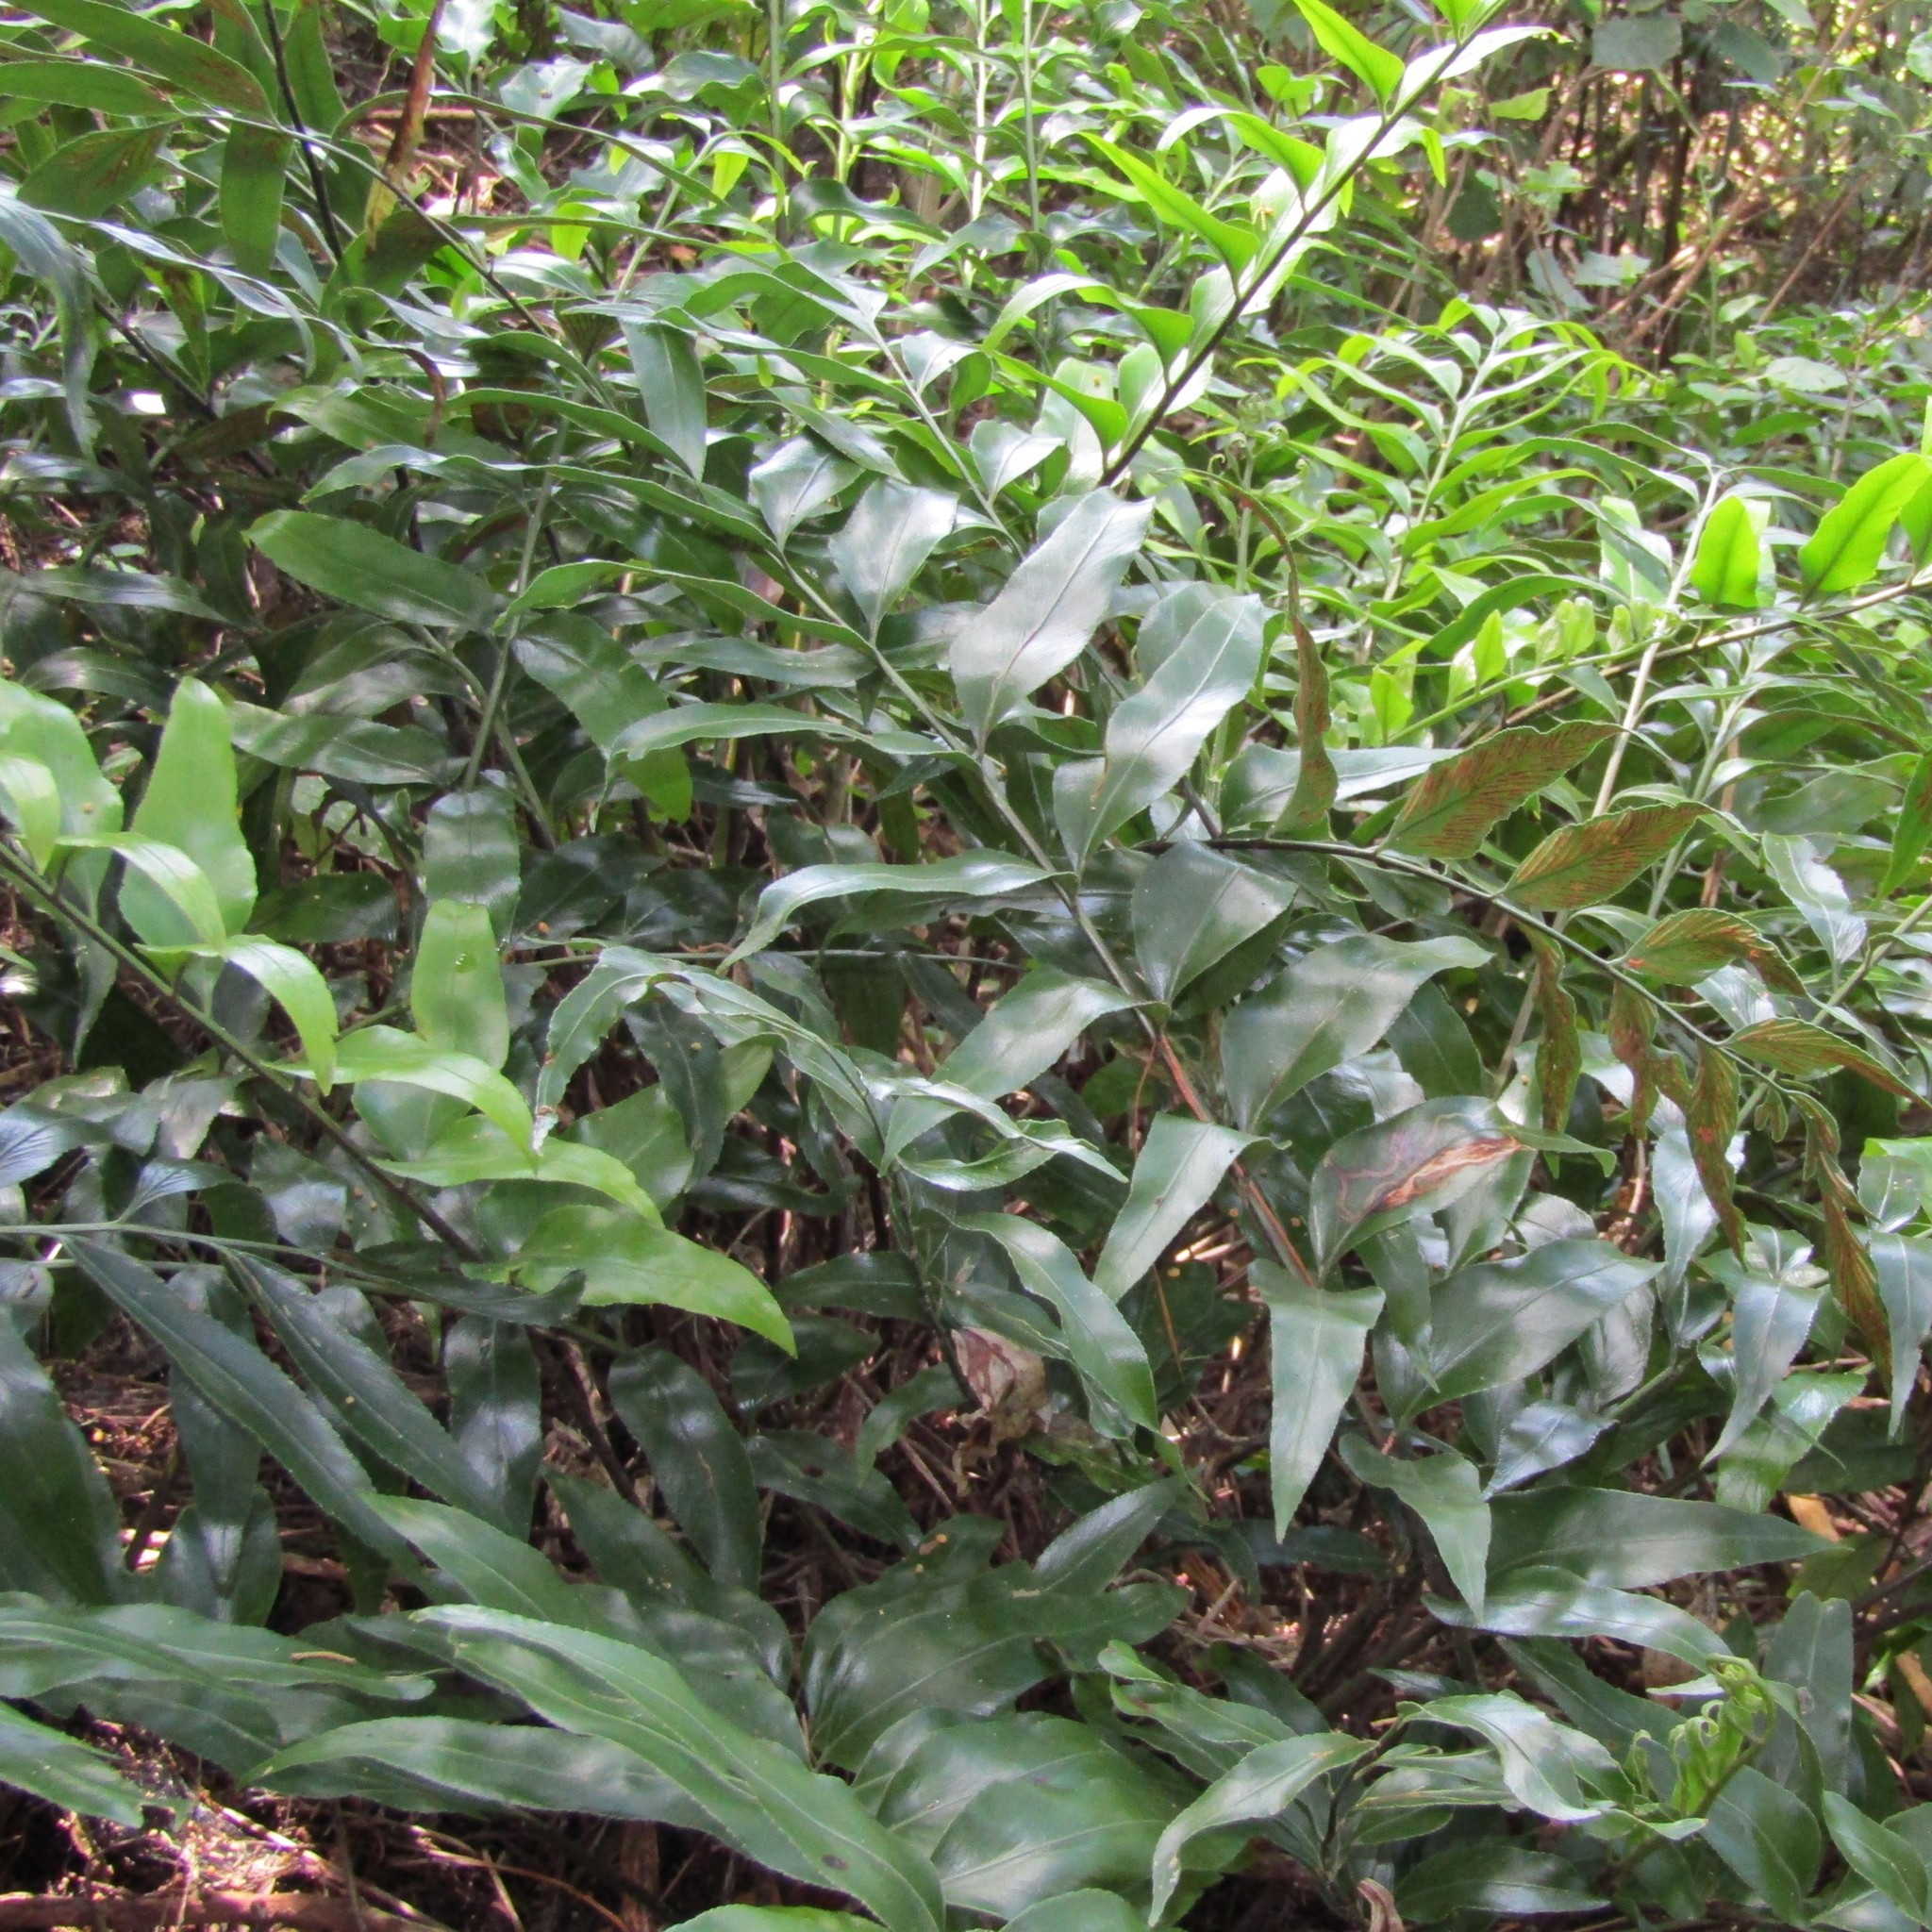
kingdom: Plantae
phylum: Tracheophyta
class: Polypodiopsida
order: Polypodiales
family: Aspleniaceae
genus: Asplenium
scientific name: Asplenium oblongifolium
